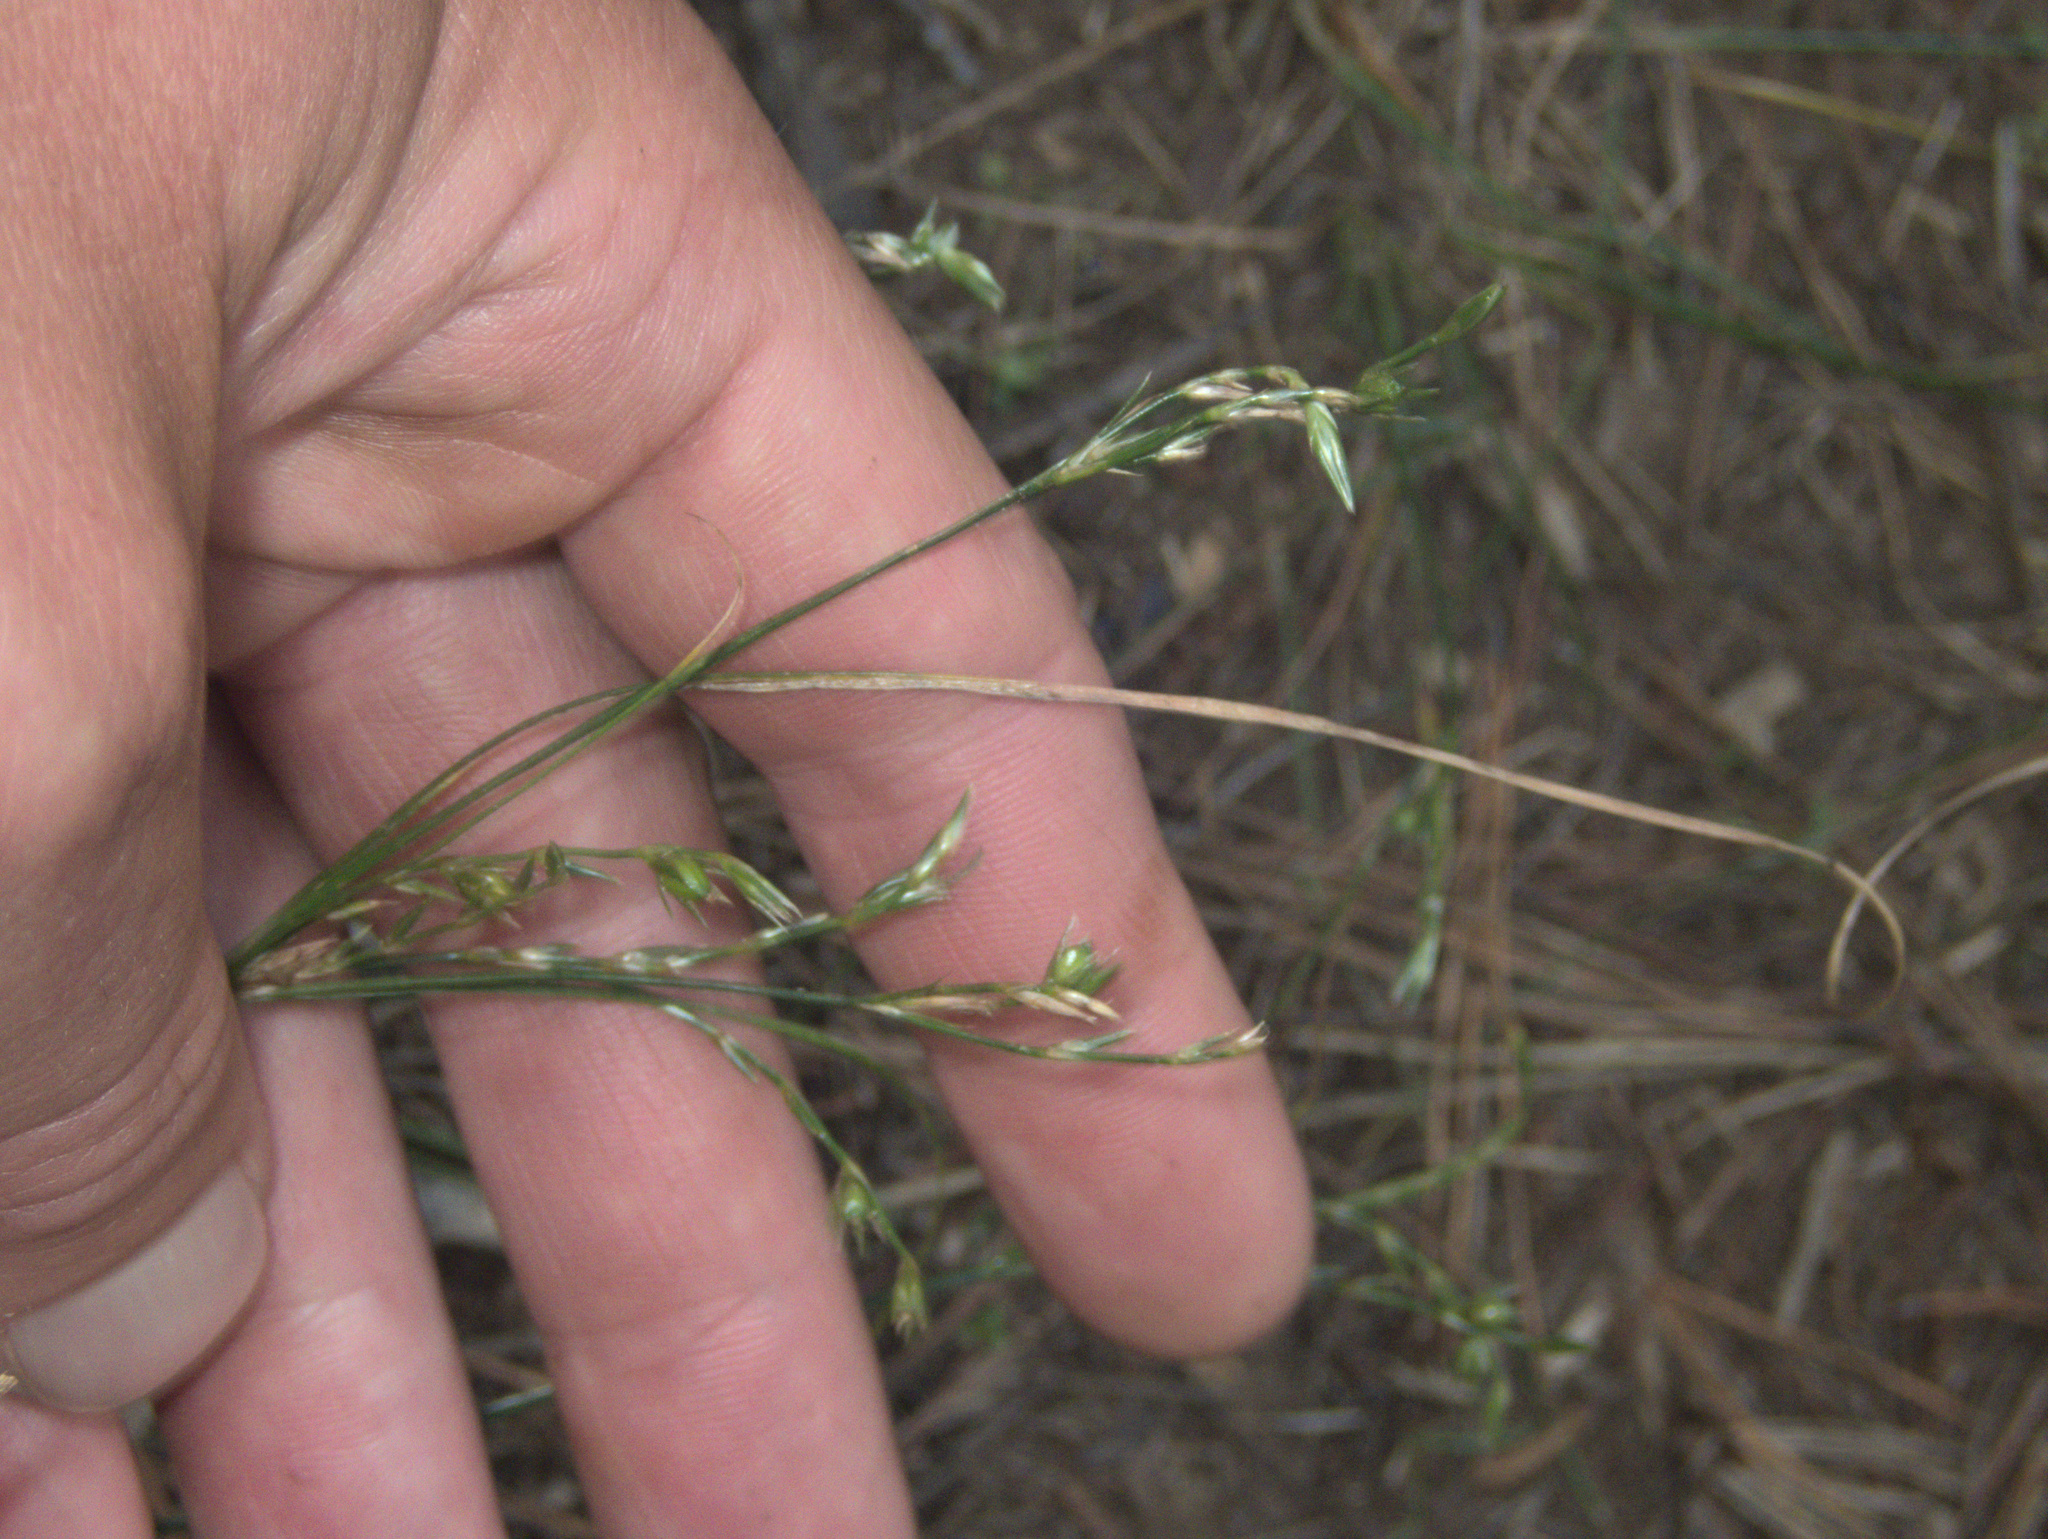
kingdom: Plantae
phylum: Tracheophyta
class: Liliopsida
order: Poales
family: Juncaceae
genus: Juncus
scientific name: Juncus tenuis
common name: Slender rush
